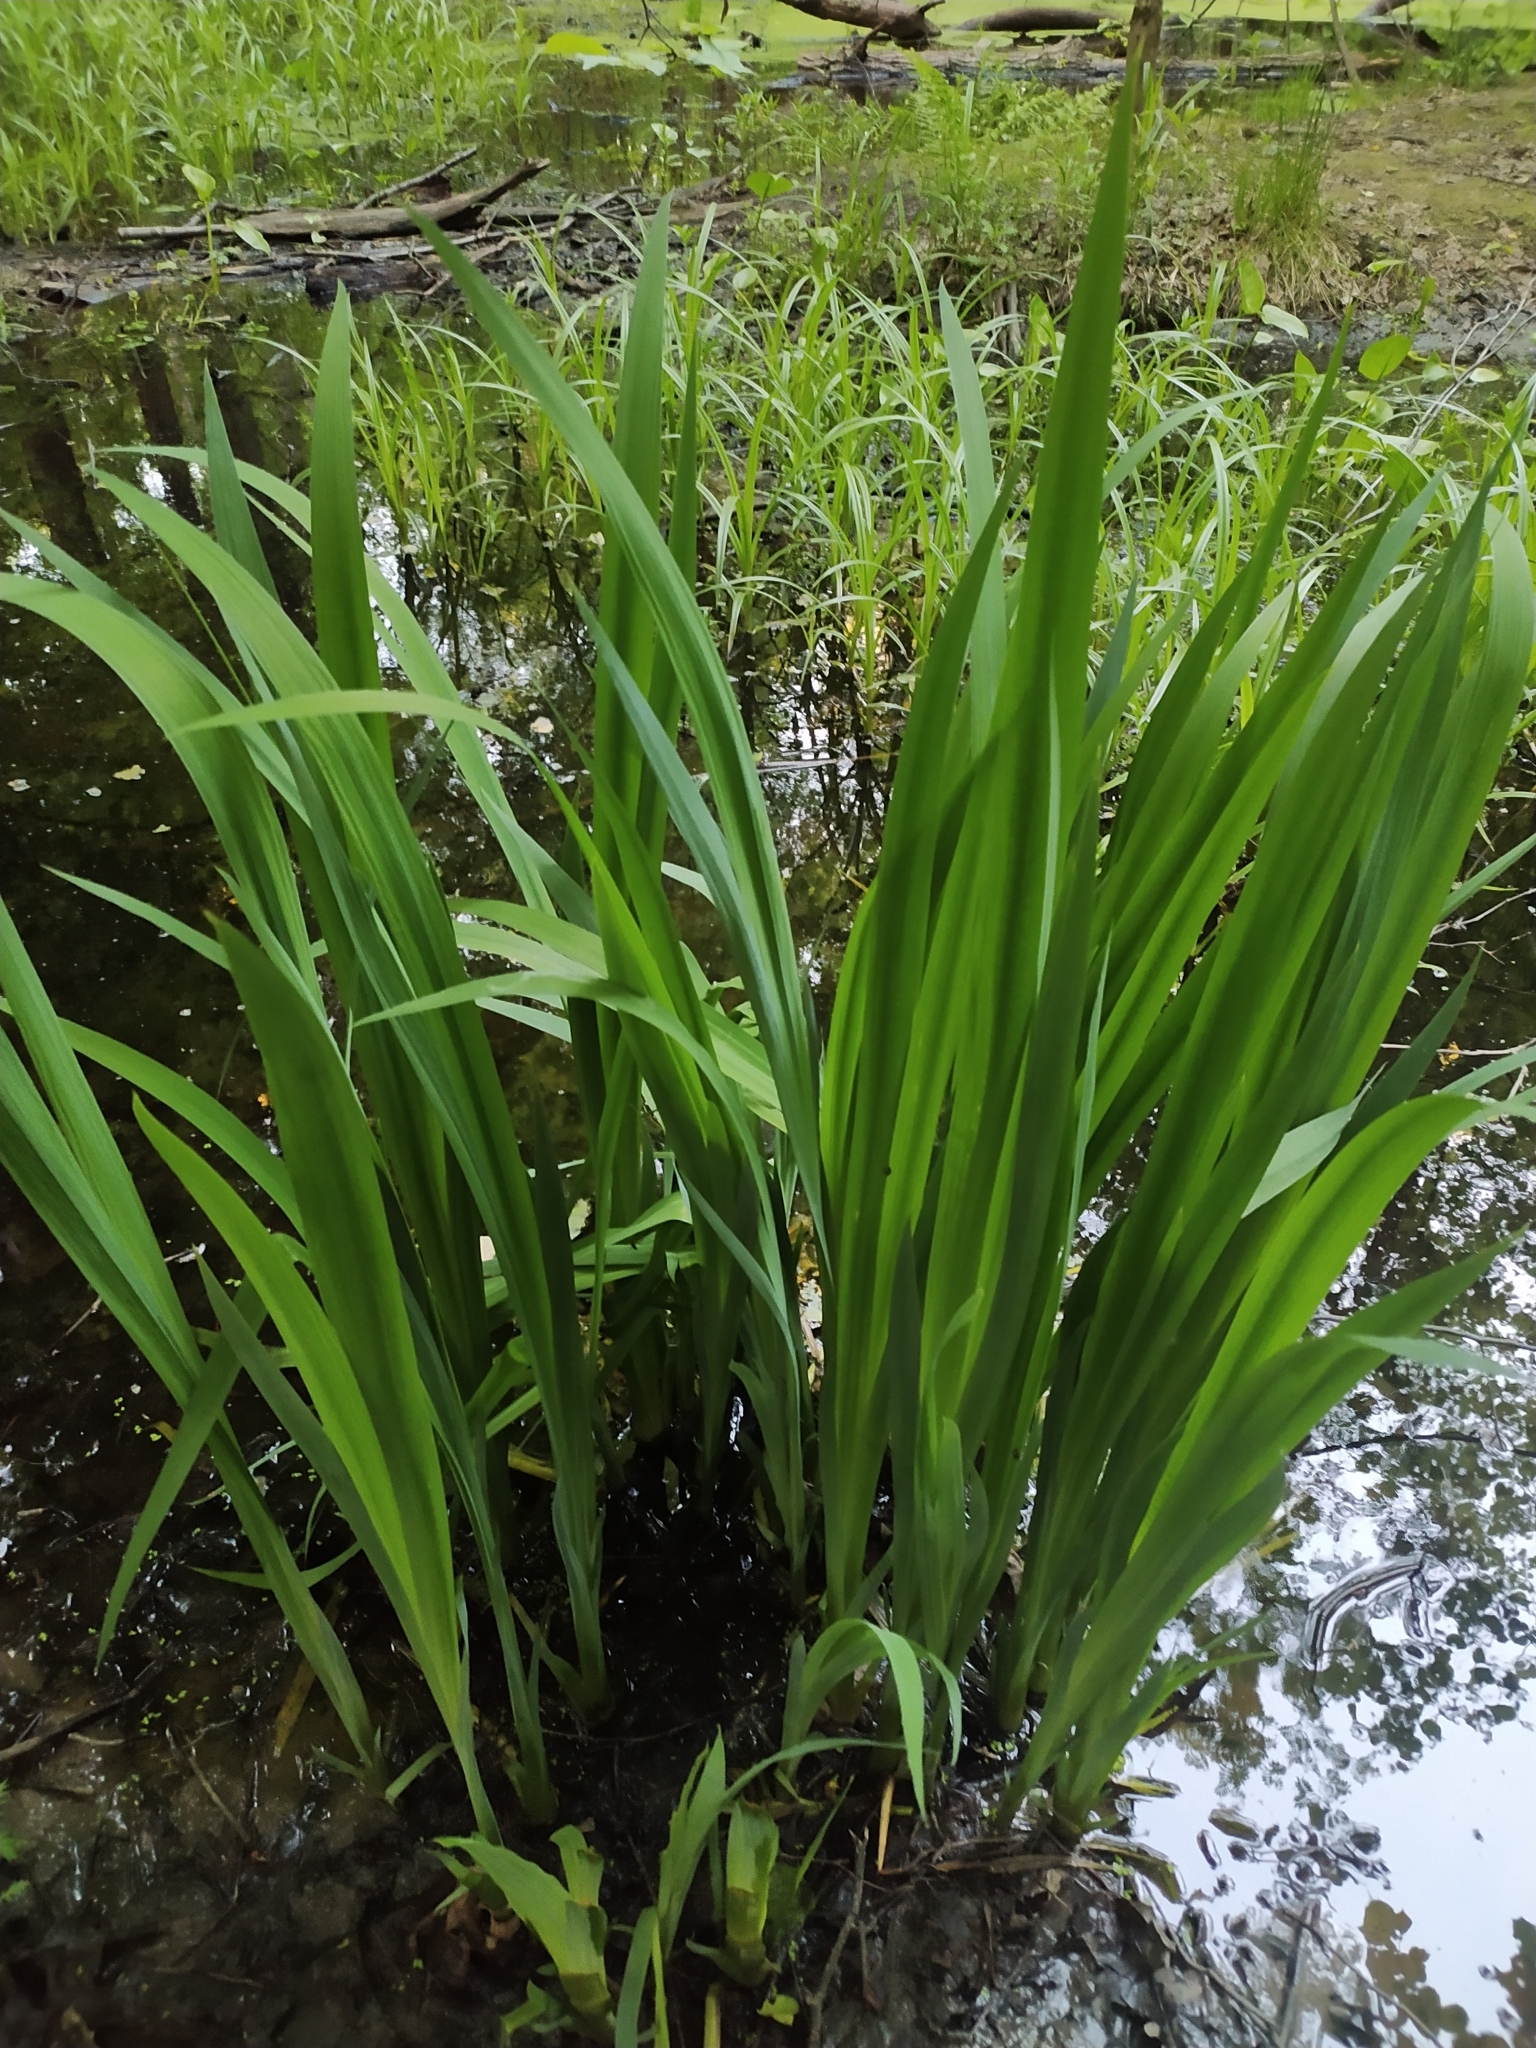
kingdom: Plantae
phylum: Tracheophyta
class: Liliopsida
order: Asparagales
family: Iridaceae
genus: Iris
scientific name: Iris pseudacorus
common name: Yellow flag
